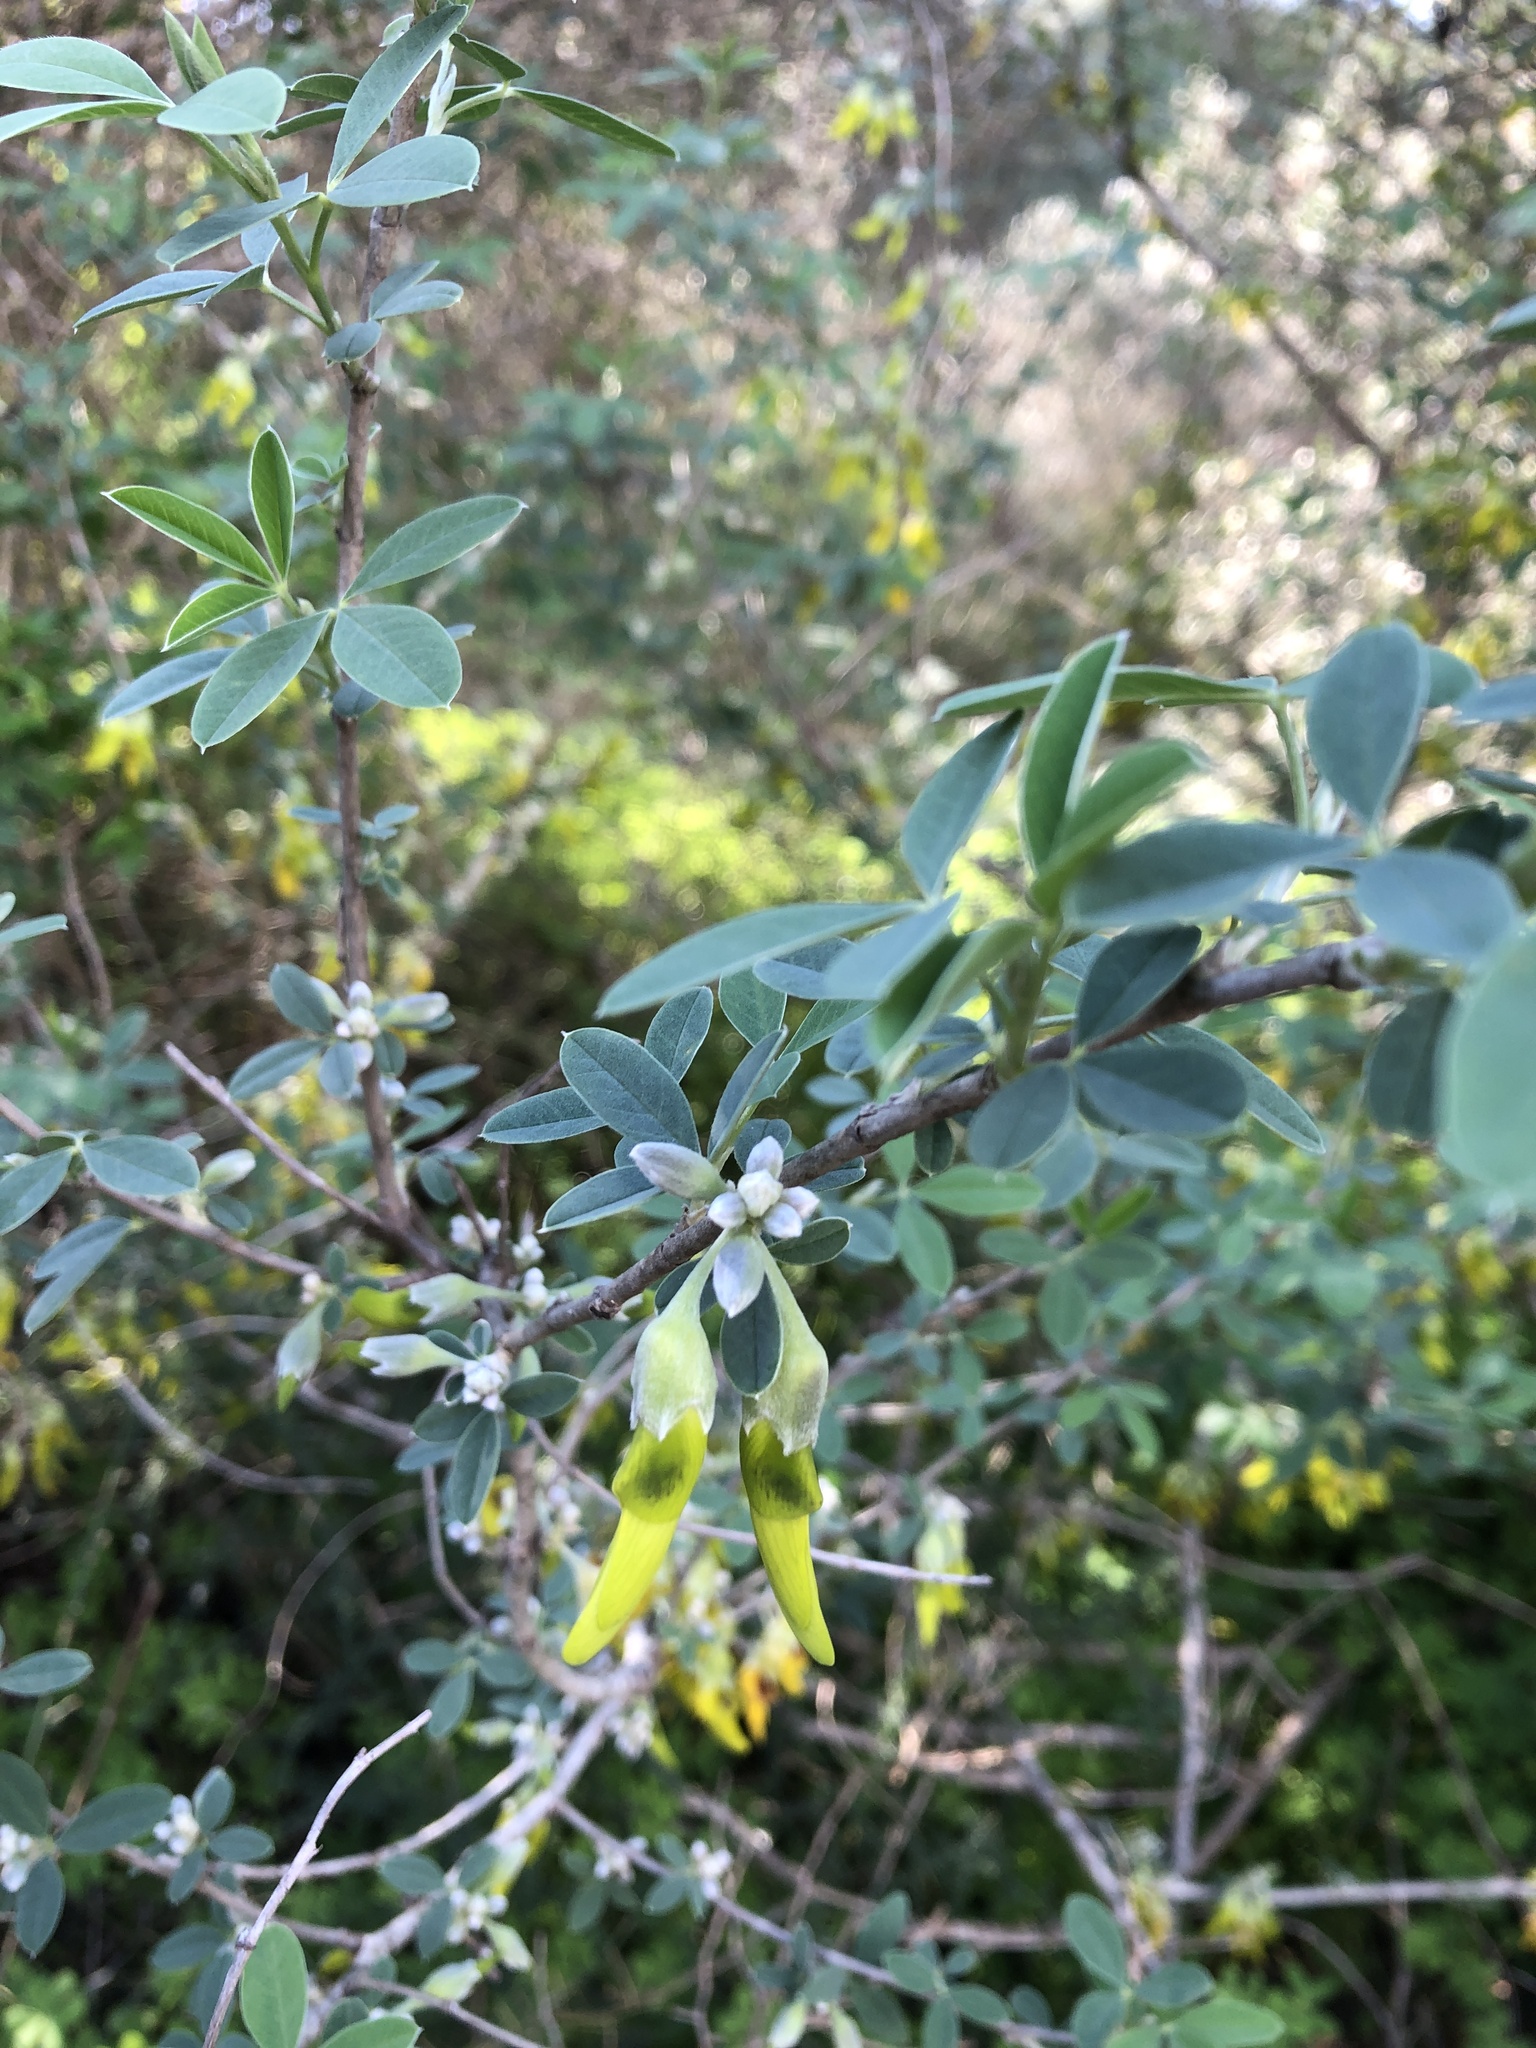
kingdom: Plantae
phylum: Tracheophyta
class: Magnoliopsida
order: Fabales
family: Fabaceae
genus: Anagyris
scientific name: Anagyris foetida
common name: Stinking bean trefoil
